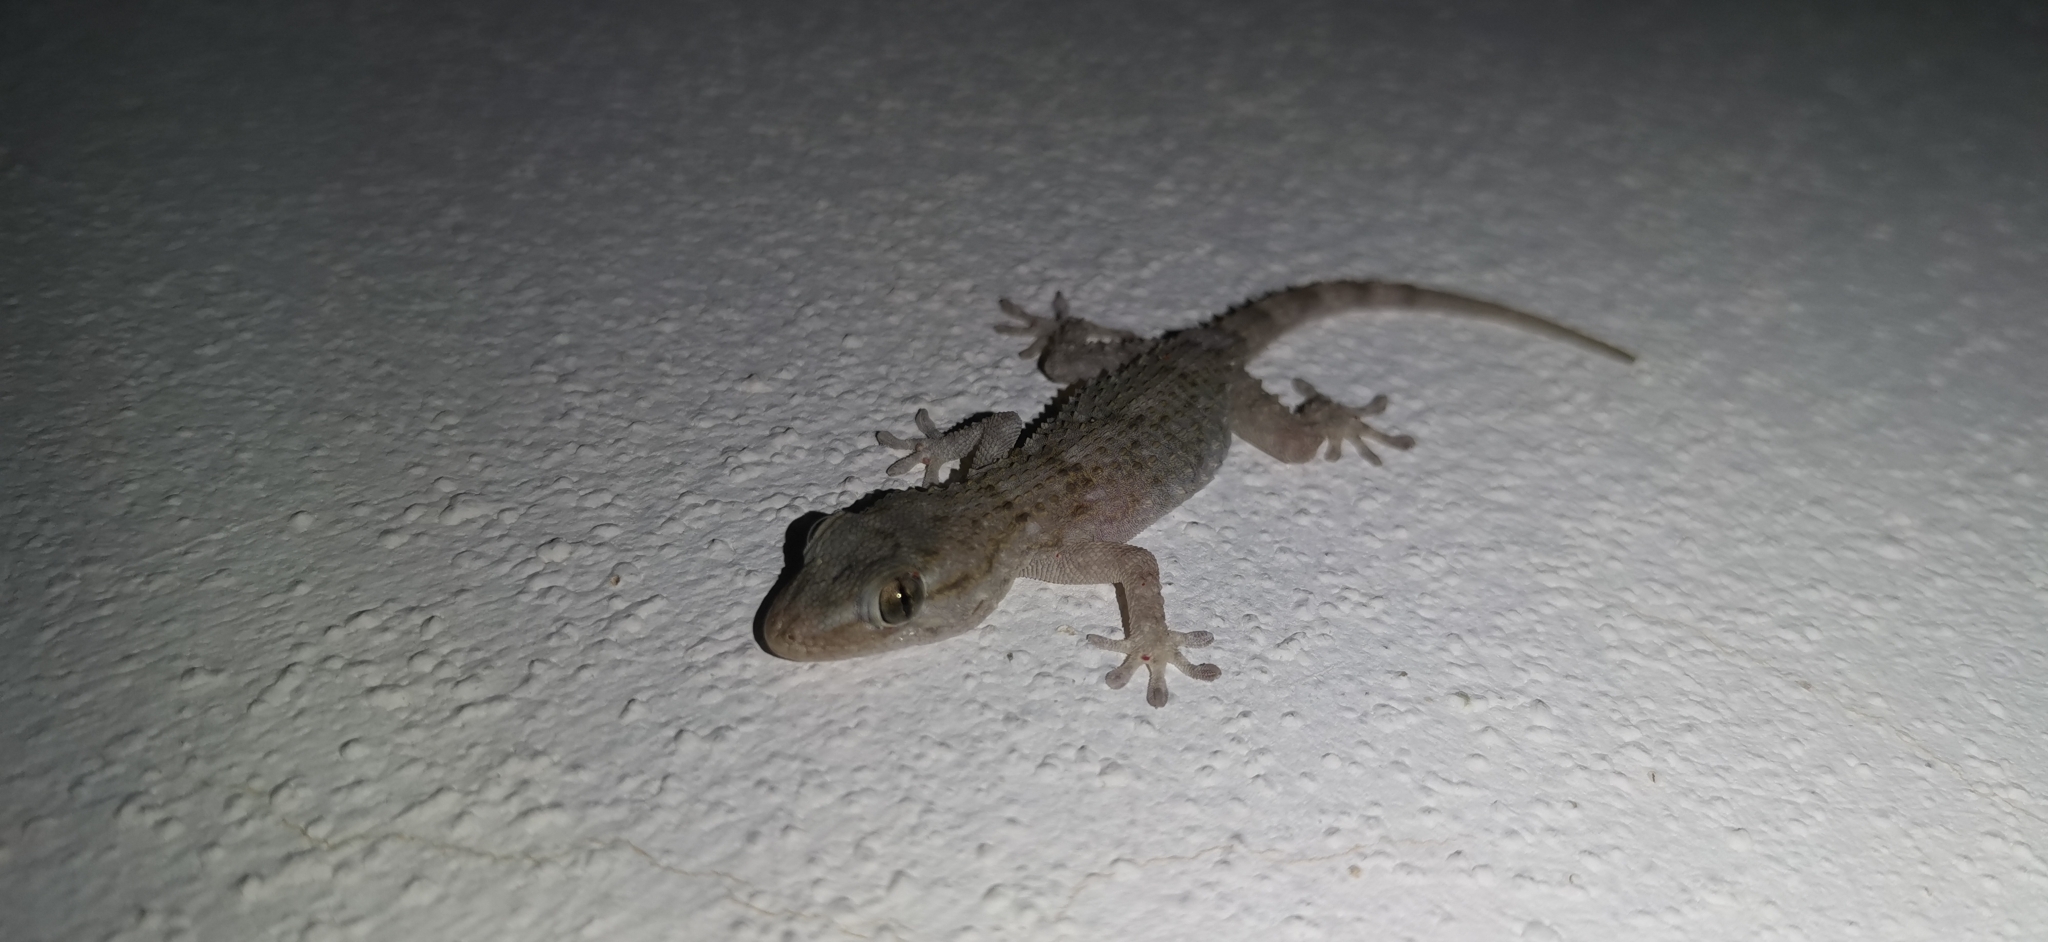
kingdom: Animalia
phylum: Chordata
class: Squamata
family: Phyllodactylidae
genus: Tarentola
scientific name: Tarentola mauritanica
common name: Moorish gecko
